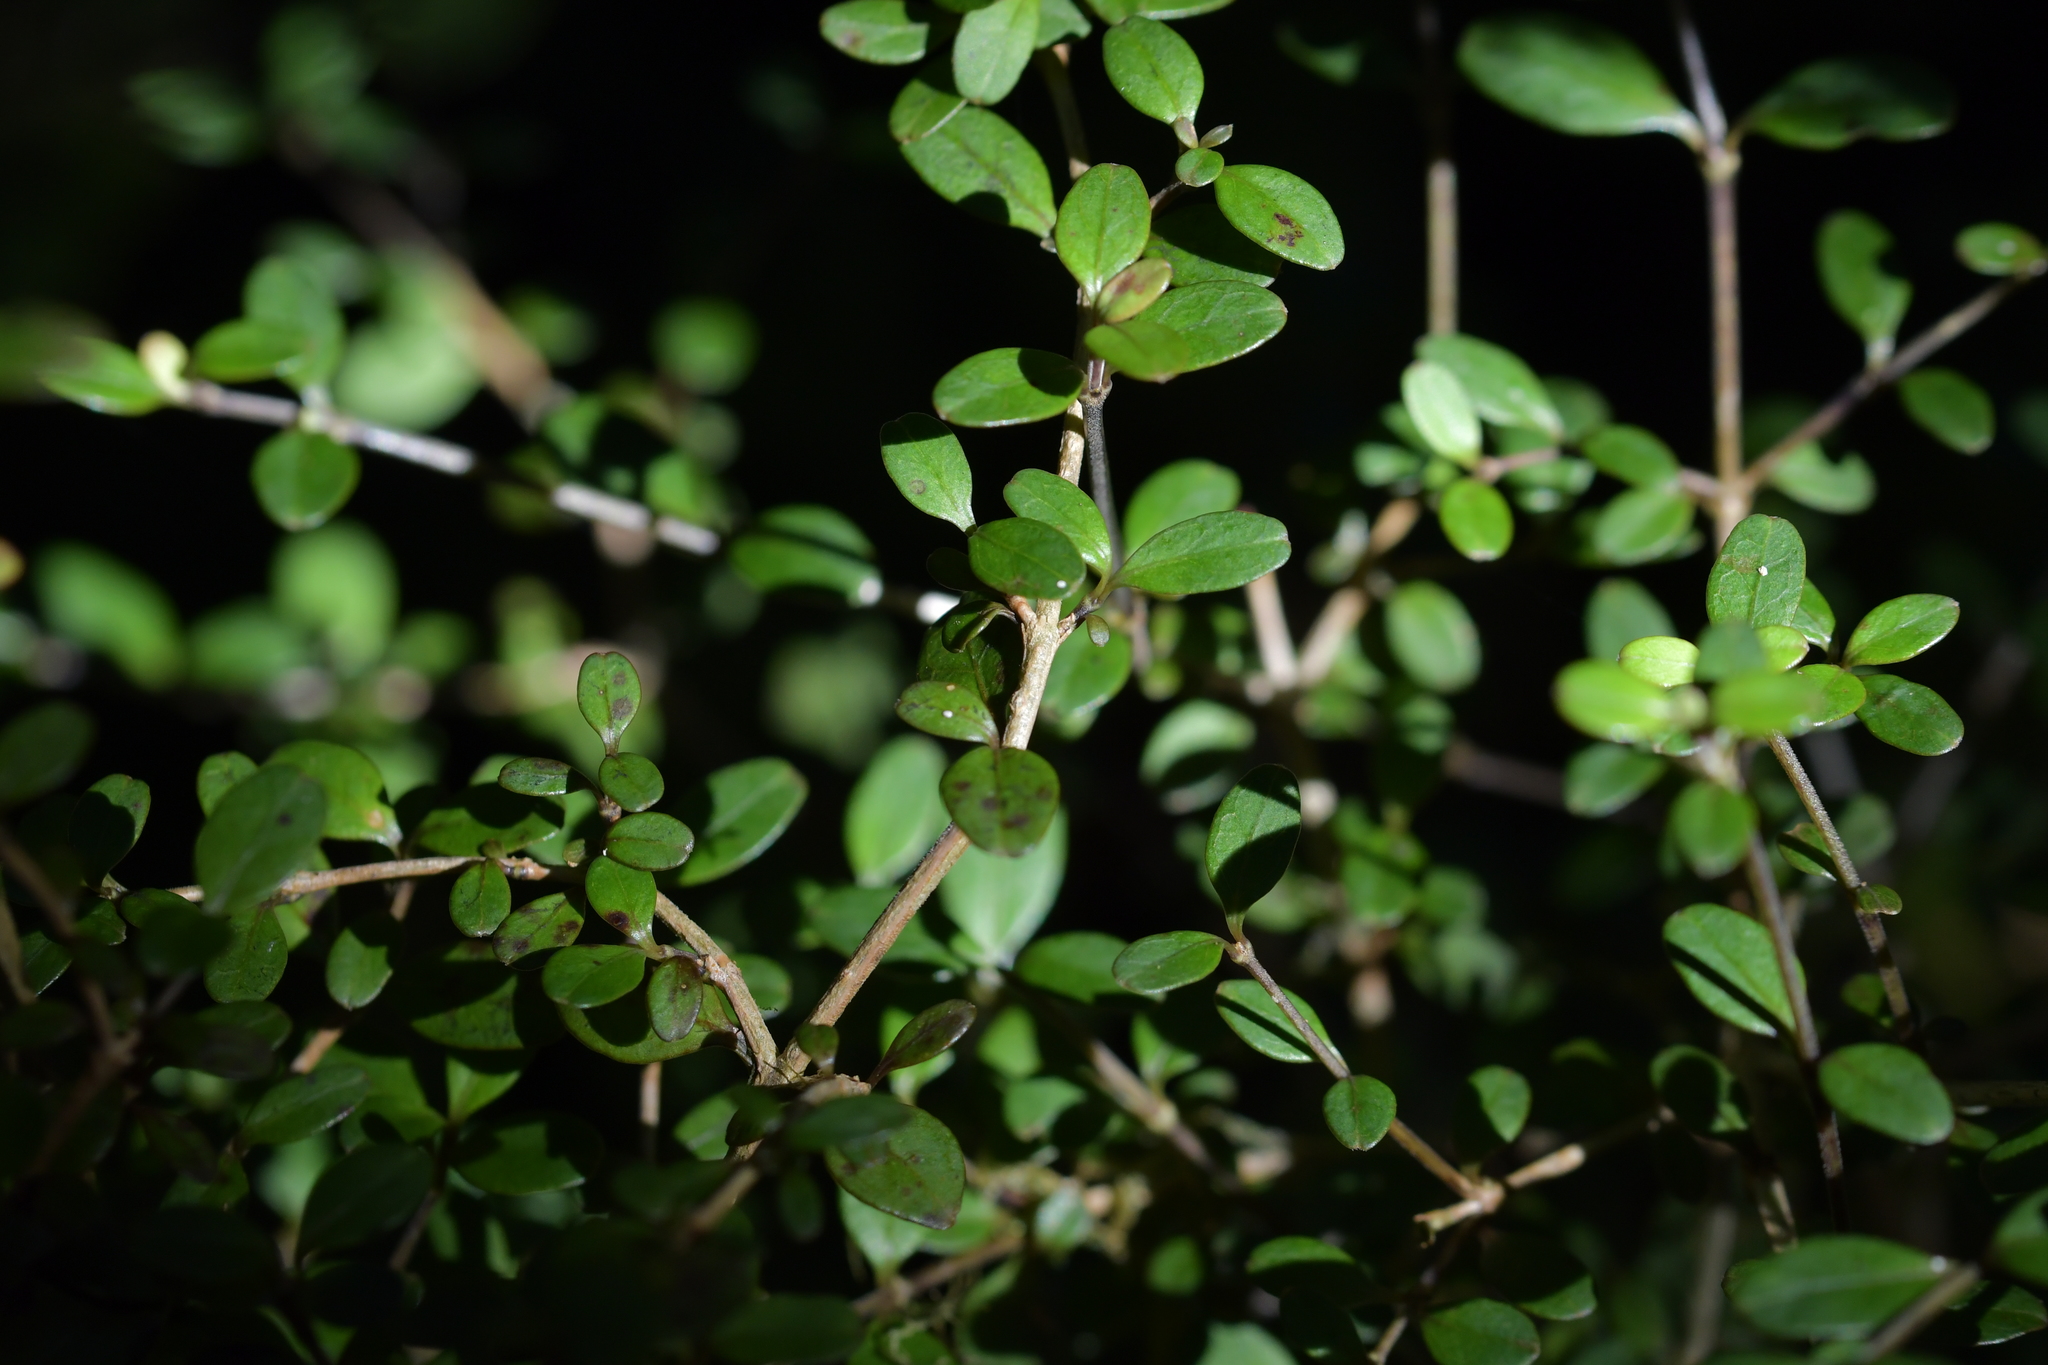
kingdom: Plantae
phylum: Tracheophyta
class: Magnoliopsida
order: Gentianales
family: Rubiaceae
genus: Coprosma
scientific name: Coprosma colensoi
